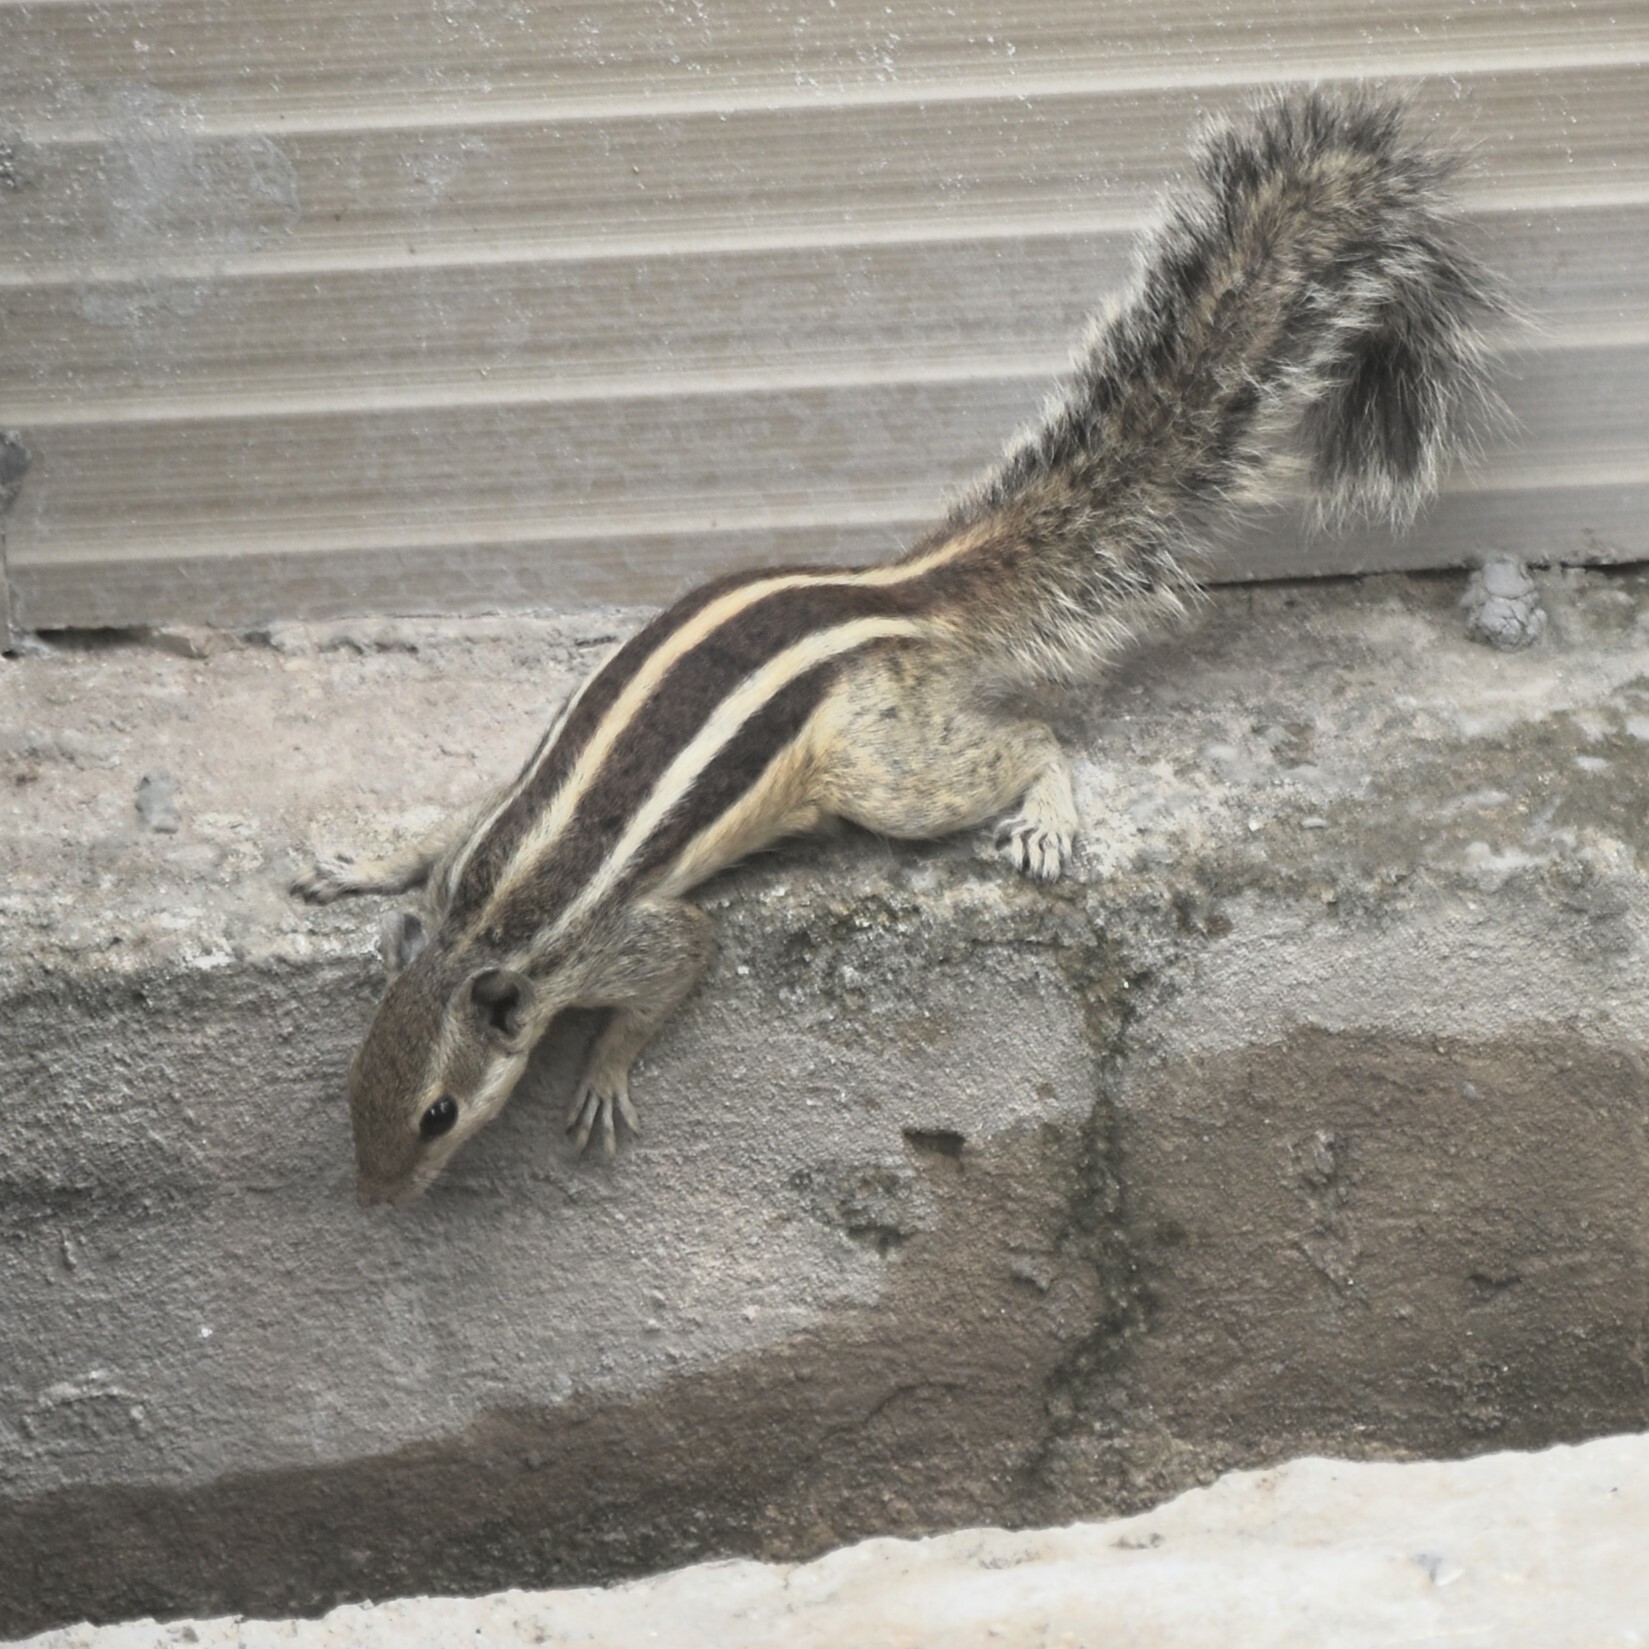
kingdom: Animalia
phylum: Chordata
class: Mammalia
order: Rodentia
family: Sciuridae
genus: Funambulus
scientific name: Funambulus pennantii
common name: Northern palm squirrel
